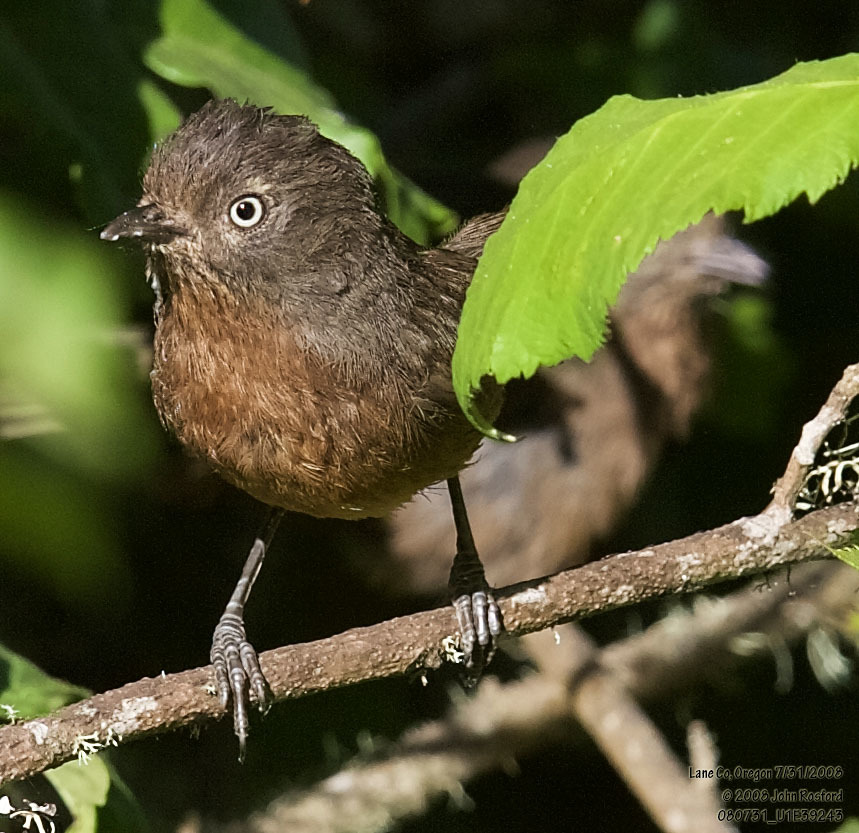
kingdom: Animalia
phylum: Chordata
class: Aves
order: Passeriformes
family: Sylviidae
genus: Chamaea
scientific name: Chamaea fasciata
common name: Wrentit
